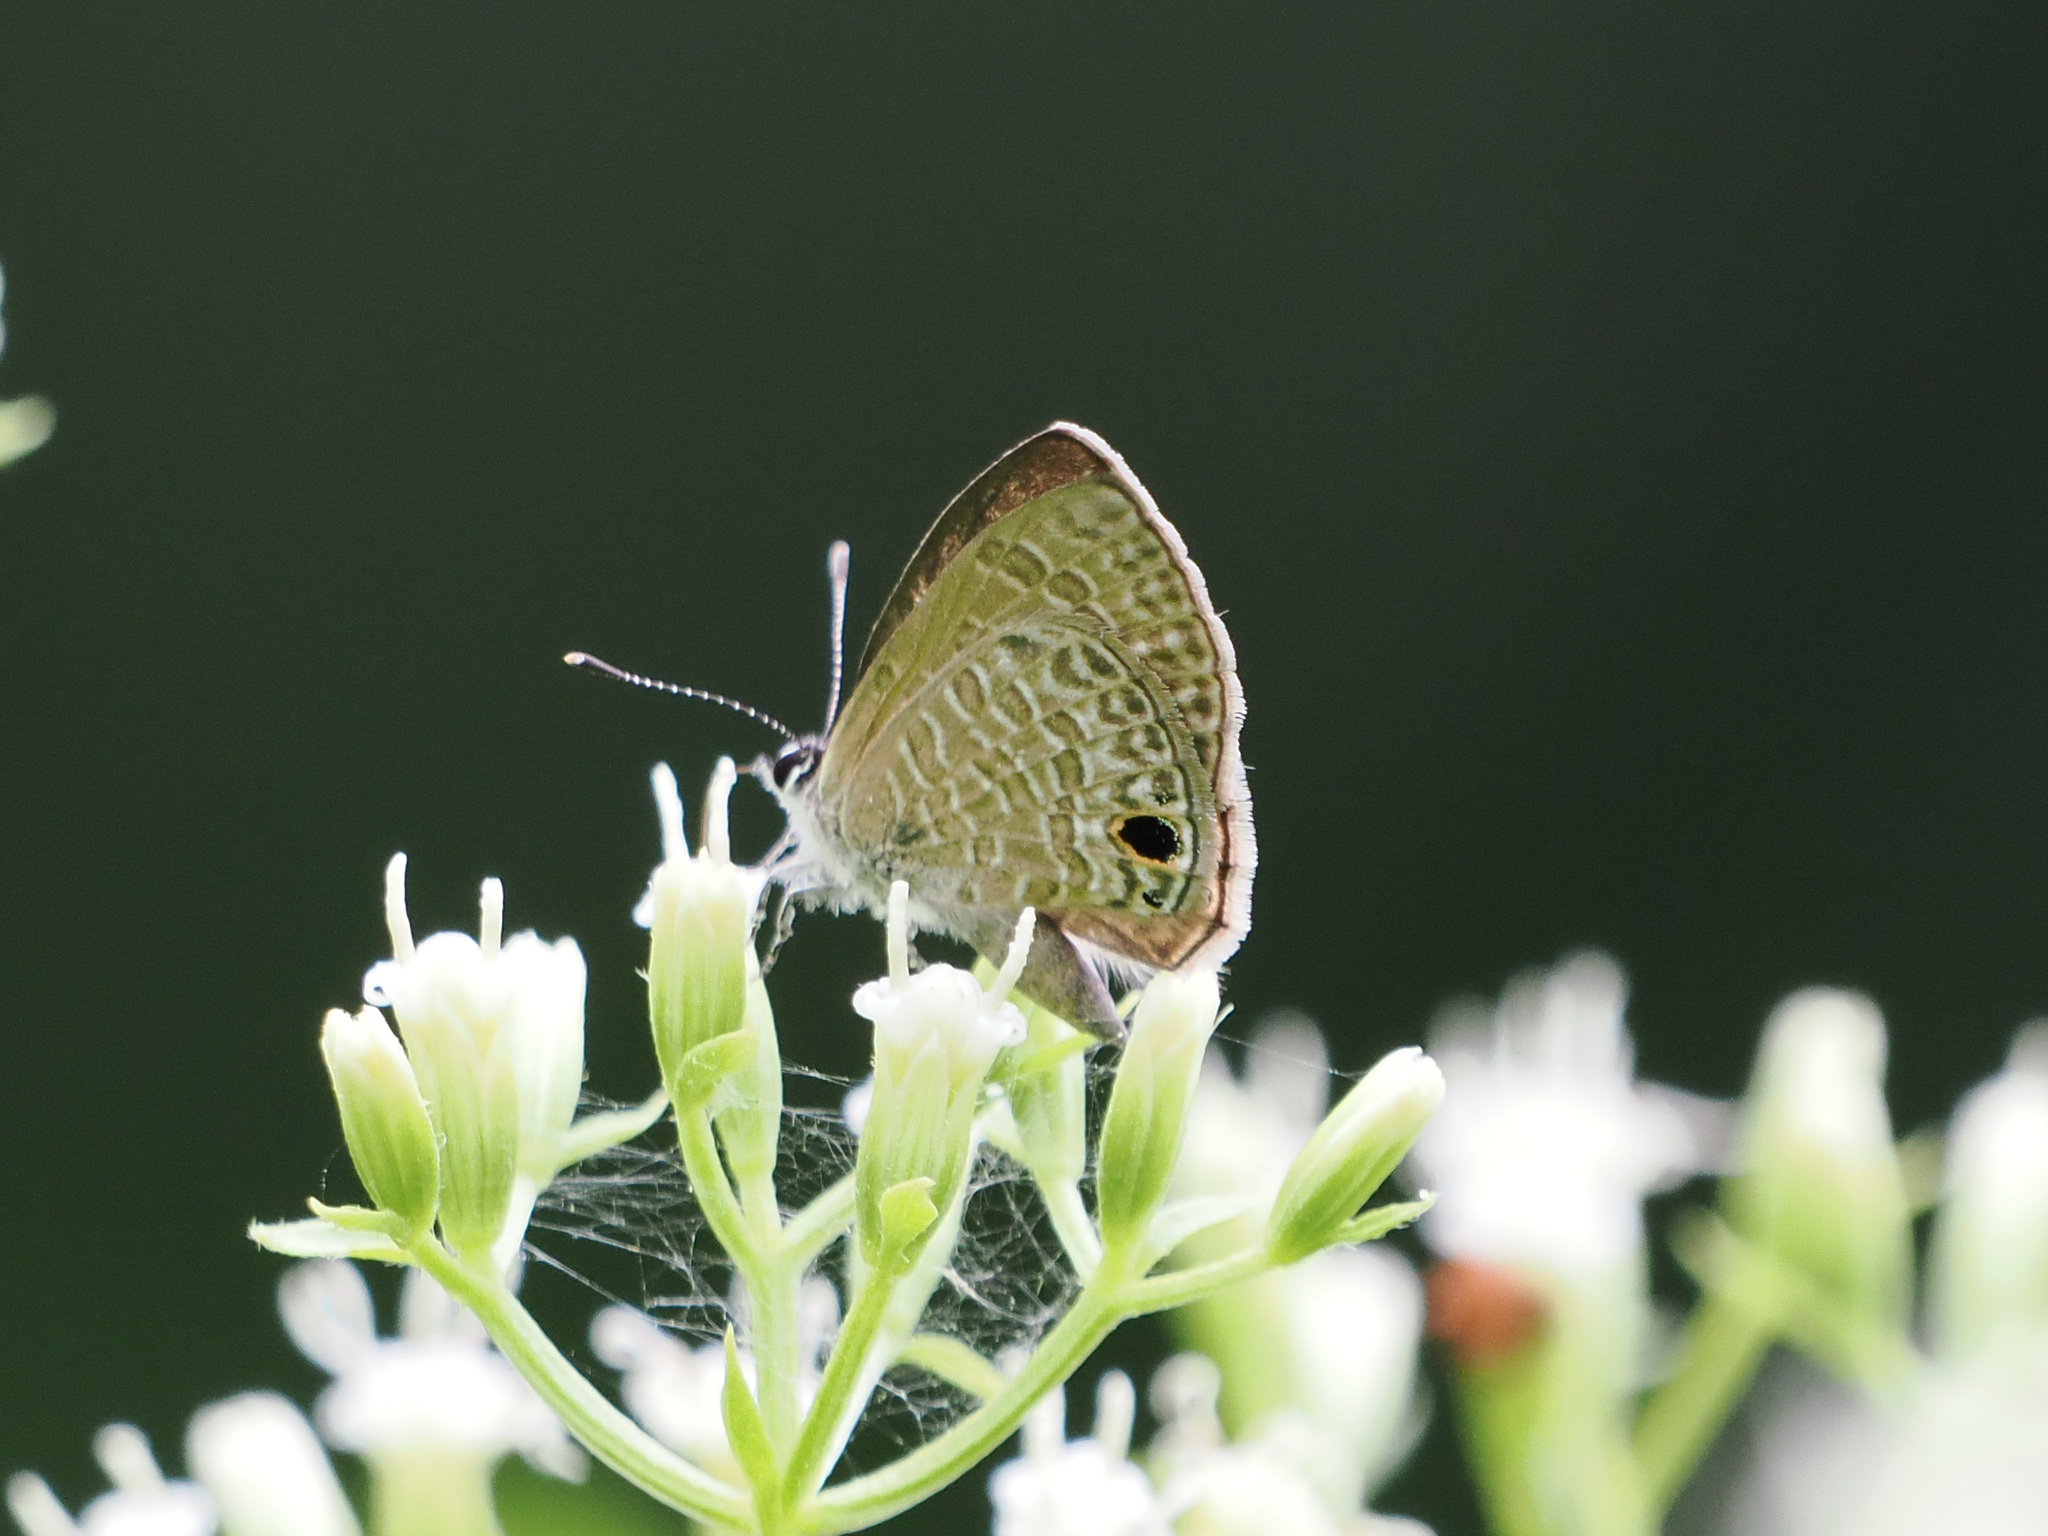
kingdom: Animalia
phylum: Arthropoda
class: Insecta
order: Lepidoptera
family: Lycaenidae
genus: Prosotas
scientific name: Prosotas dubiosa
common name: Tailless lineblue
